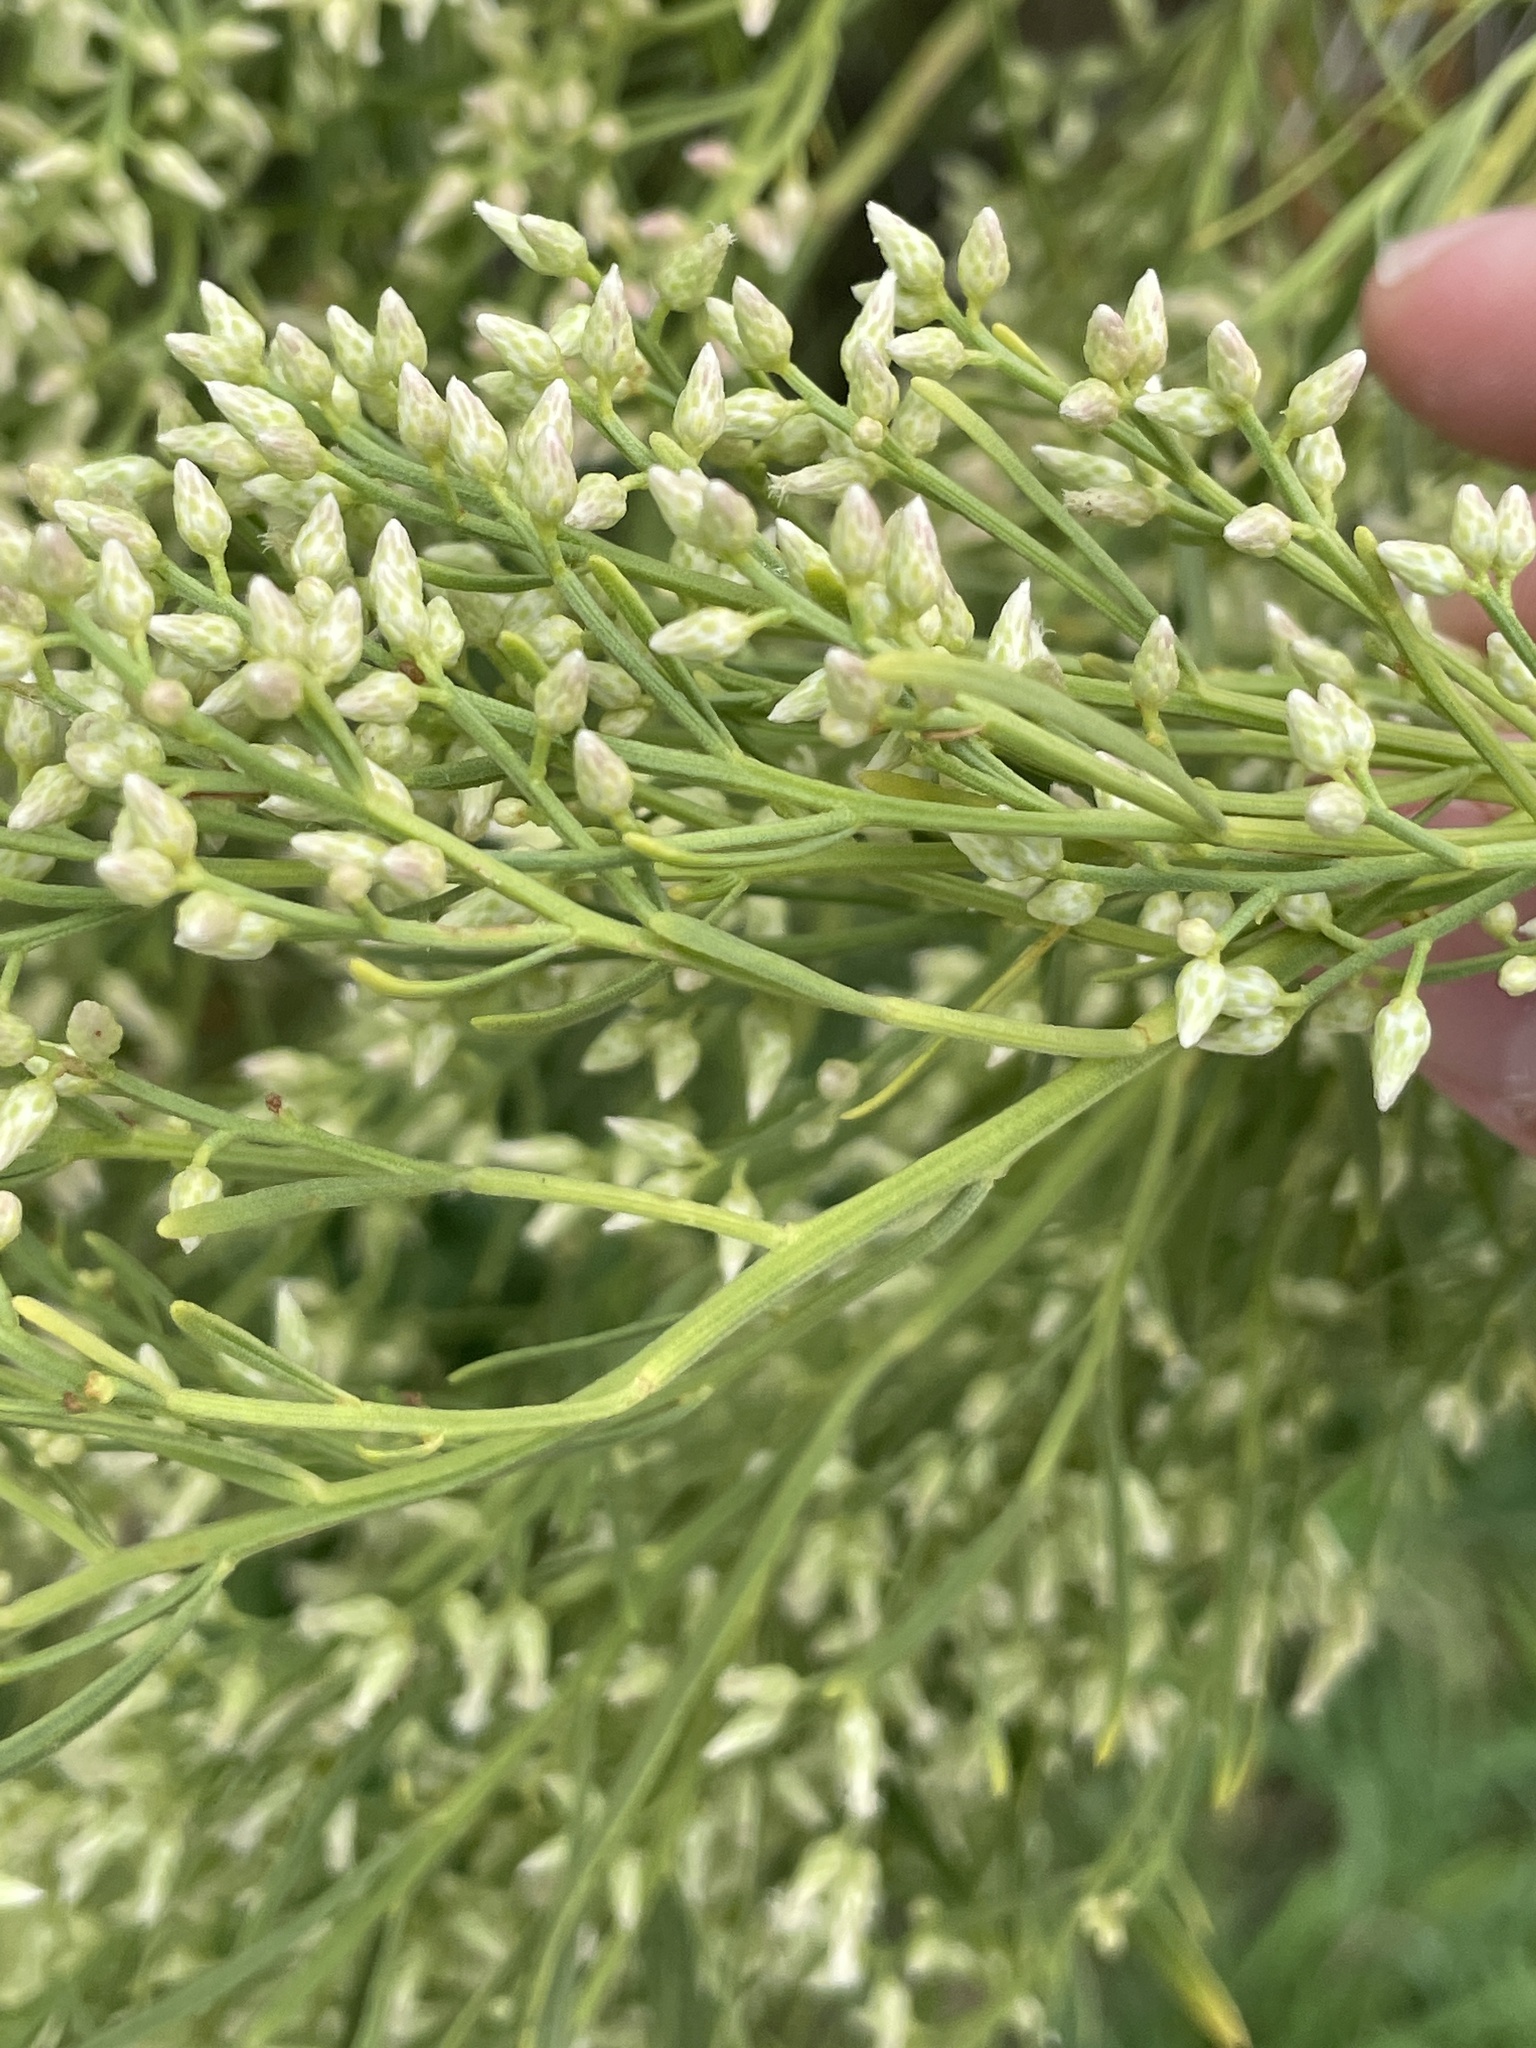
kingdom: Plantae
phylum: Tracheophyta
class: Magnoliopsida
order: Asterales
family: Asteraceae
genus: Baccharis
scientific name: Baccharis neglecta
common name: Roosevelt-weed
